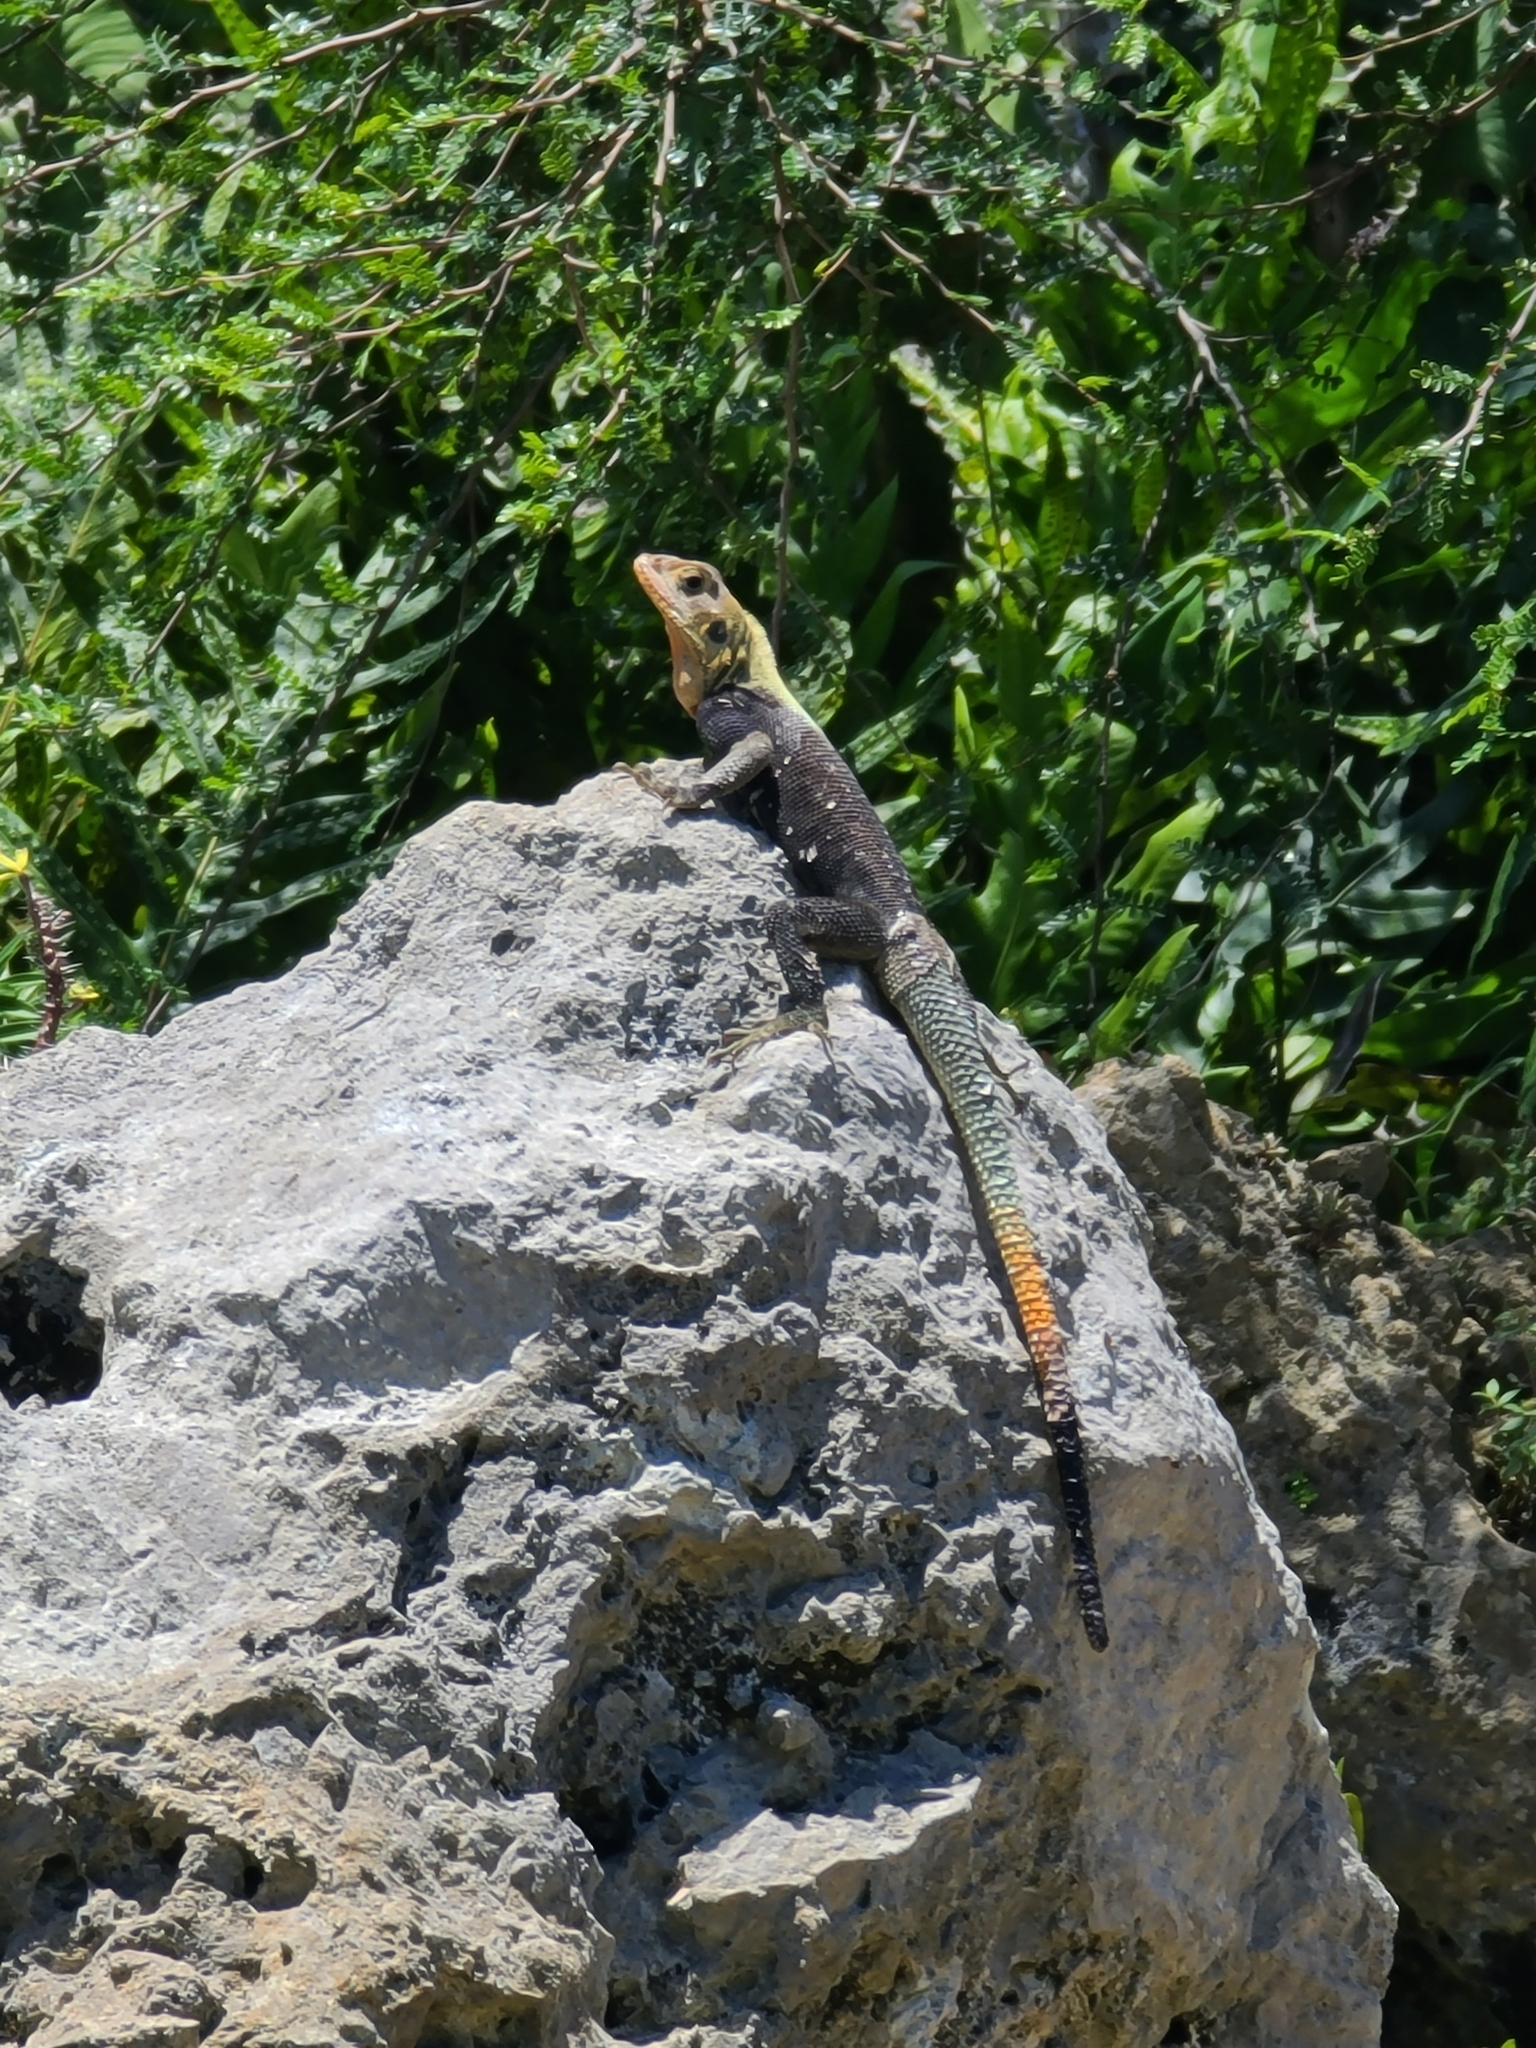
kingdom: Animalia
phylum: Chordata
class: Squamata
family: Agamidae
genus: Agama
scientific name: Agama picticauda
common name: Red-headed agama
